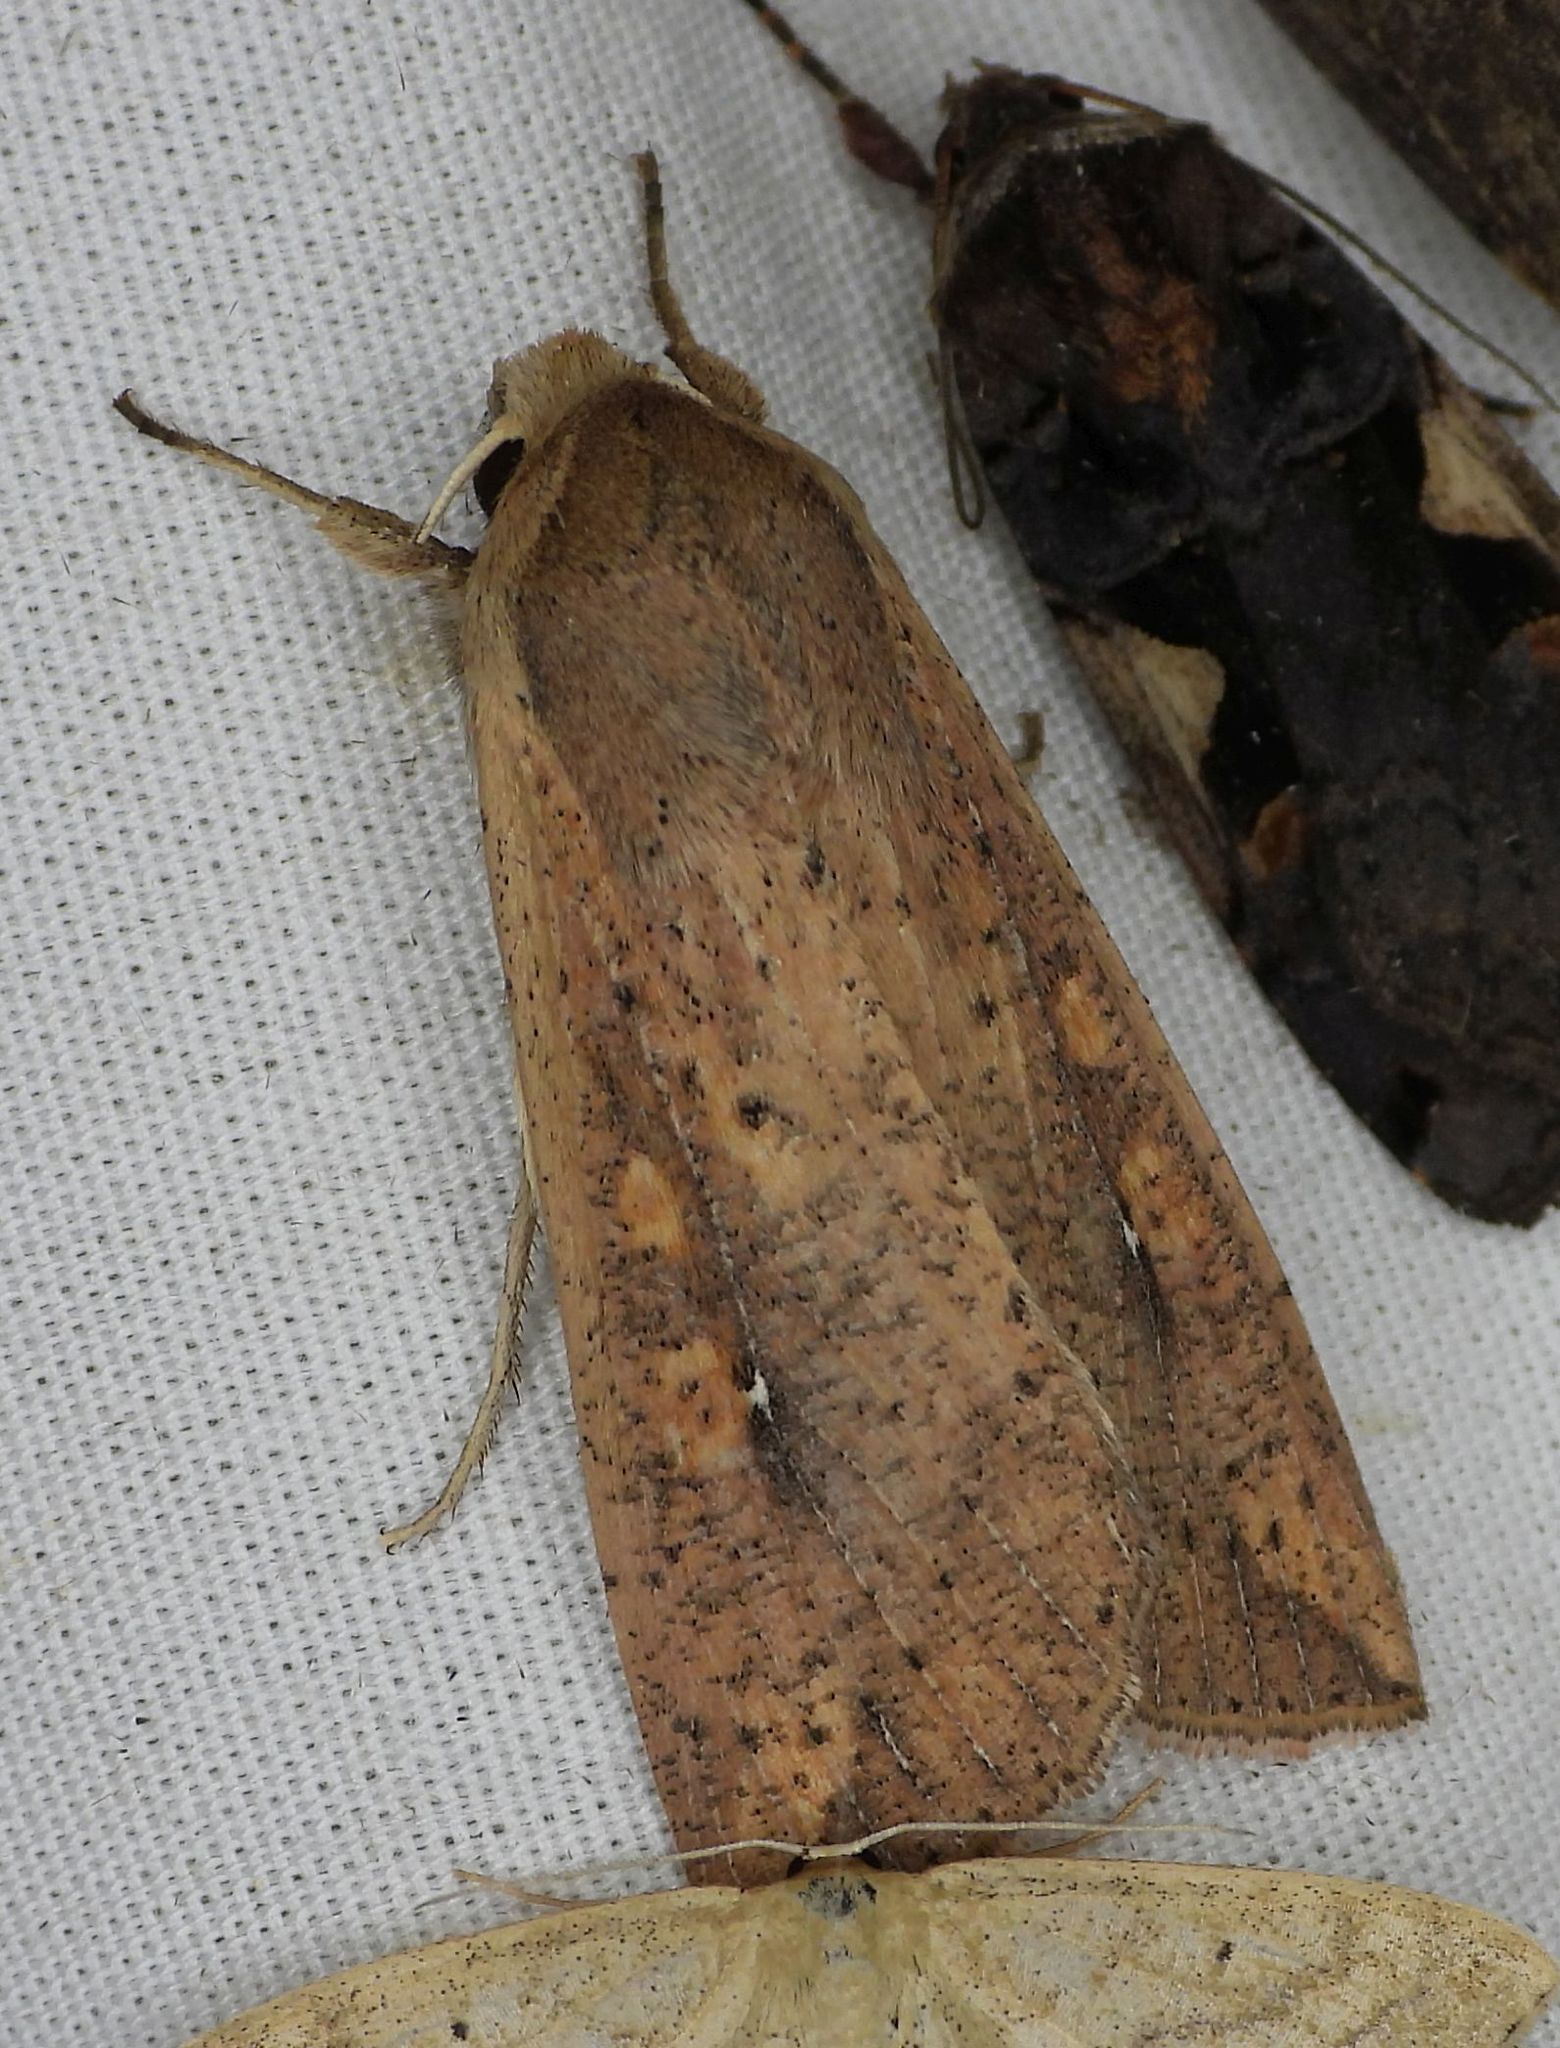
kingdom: Animalia
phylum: Arthropoda
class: Insecta
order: Lepidoptera
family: Noctuidae
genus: Mythimna
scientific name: Mythimna unipuncta
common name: White-speck
